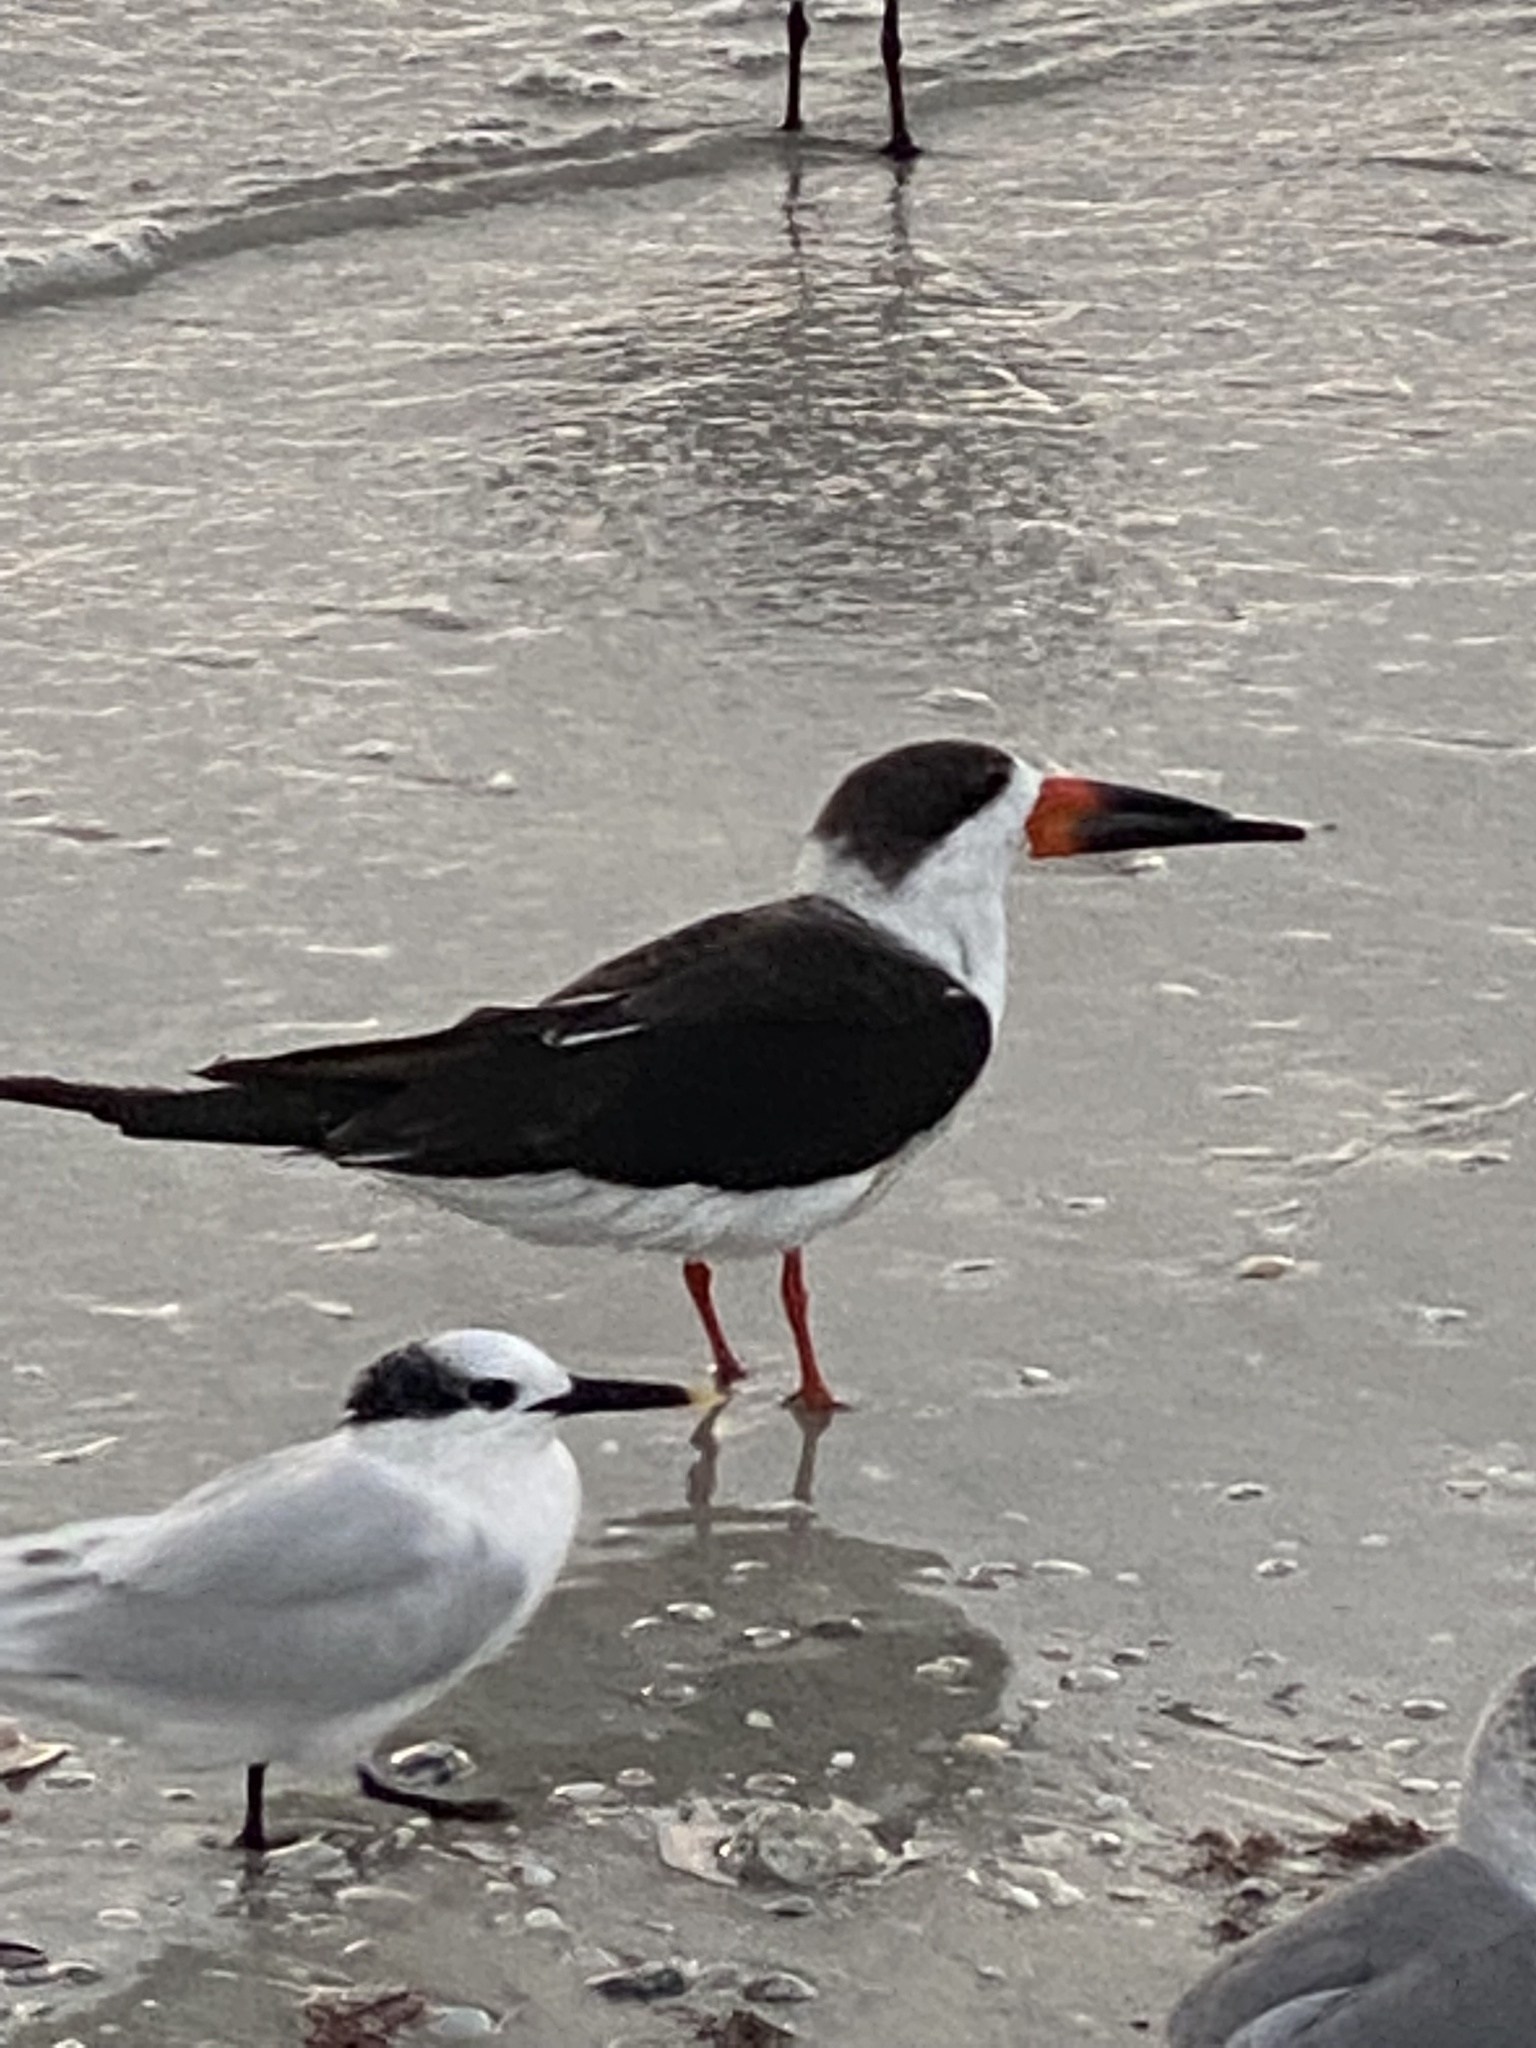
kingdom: Animalia
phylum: Chordata
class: Aves
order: Charadriiformes
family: Laridae
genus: Rynchops
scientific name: Rynchops niger
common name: Black skimmer
